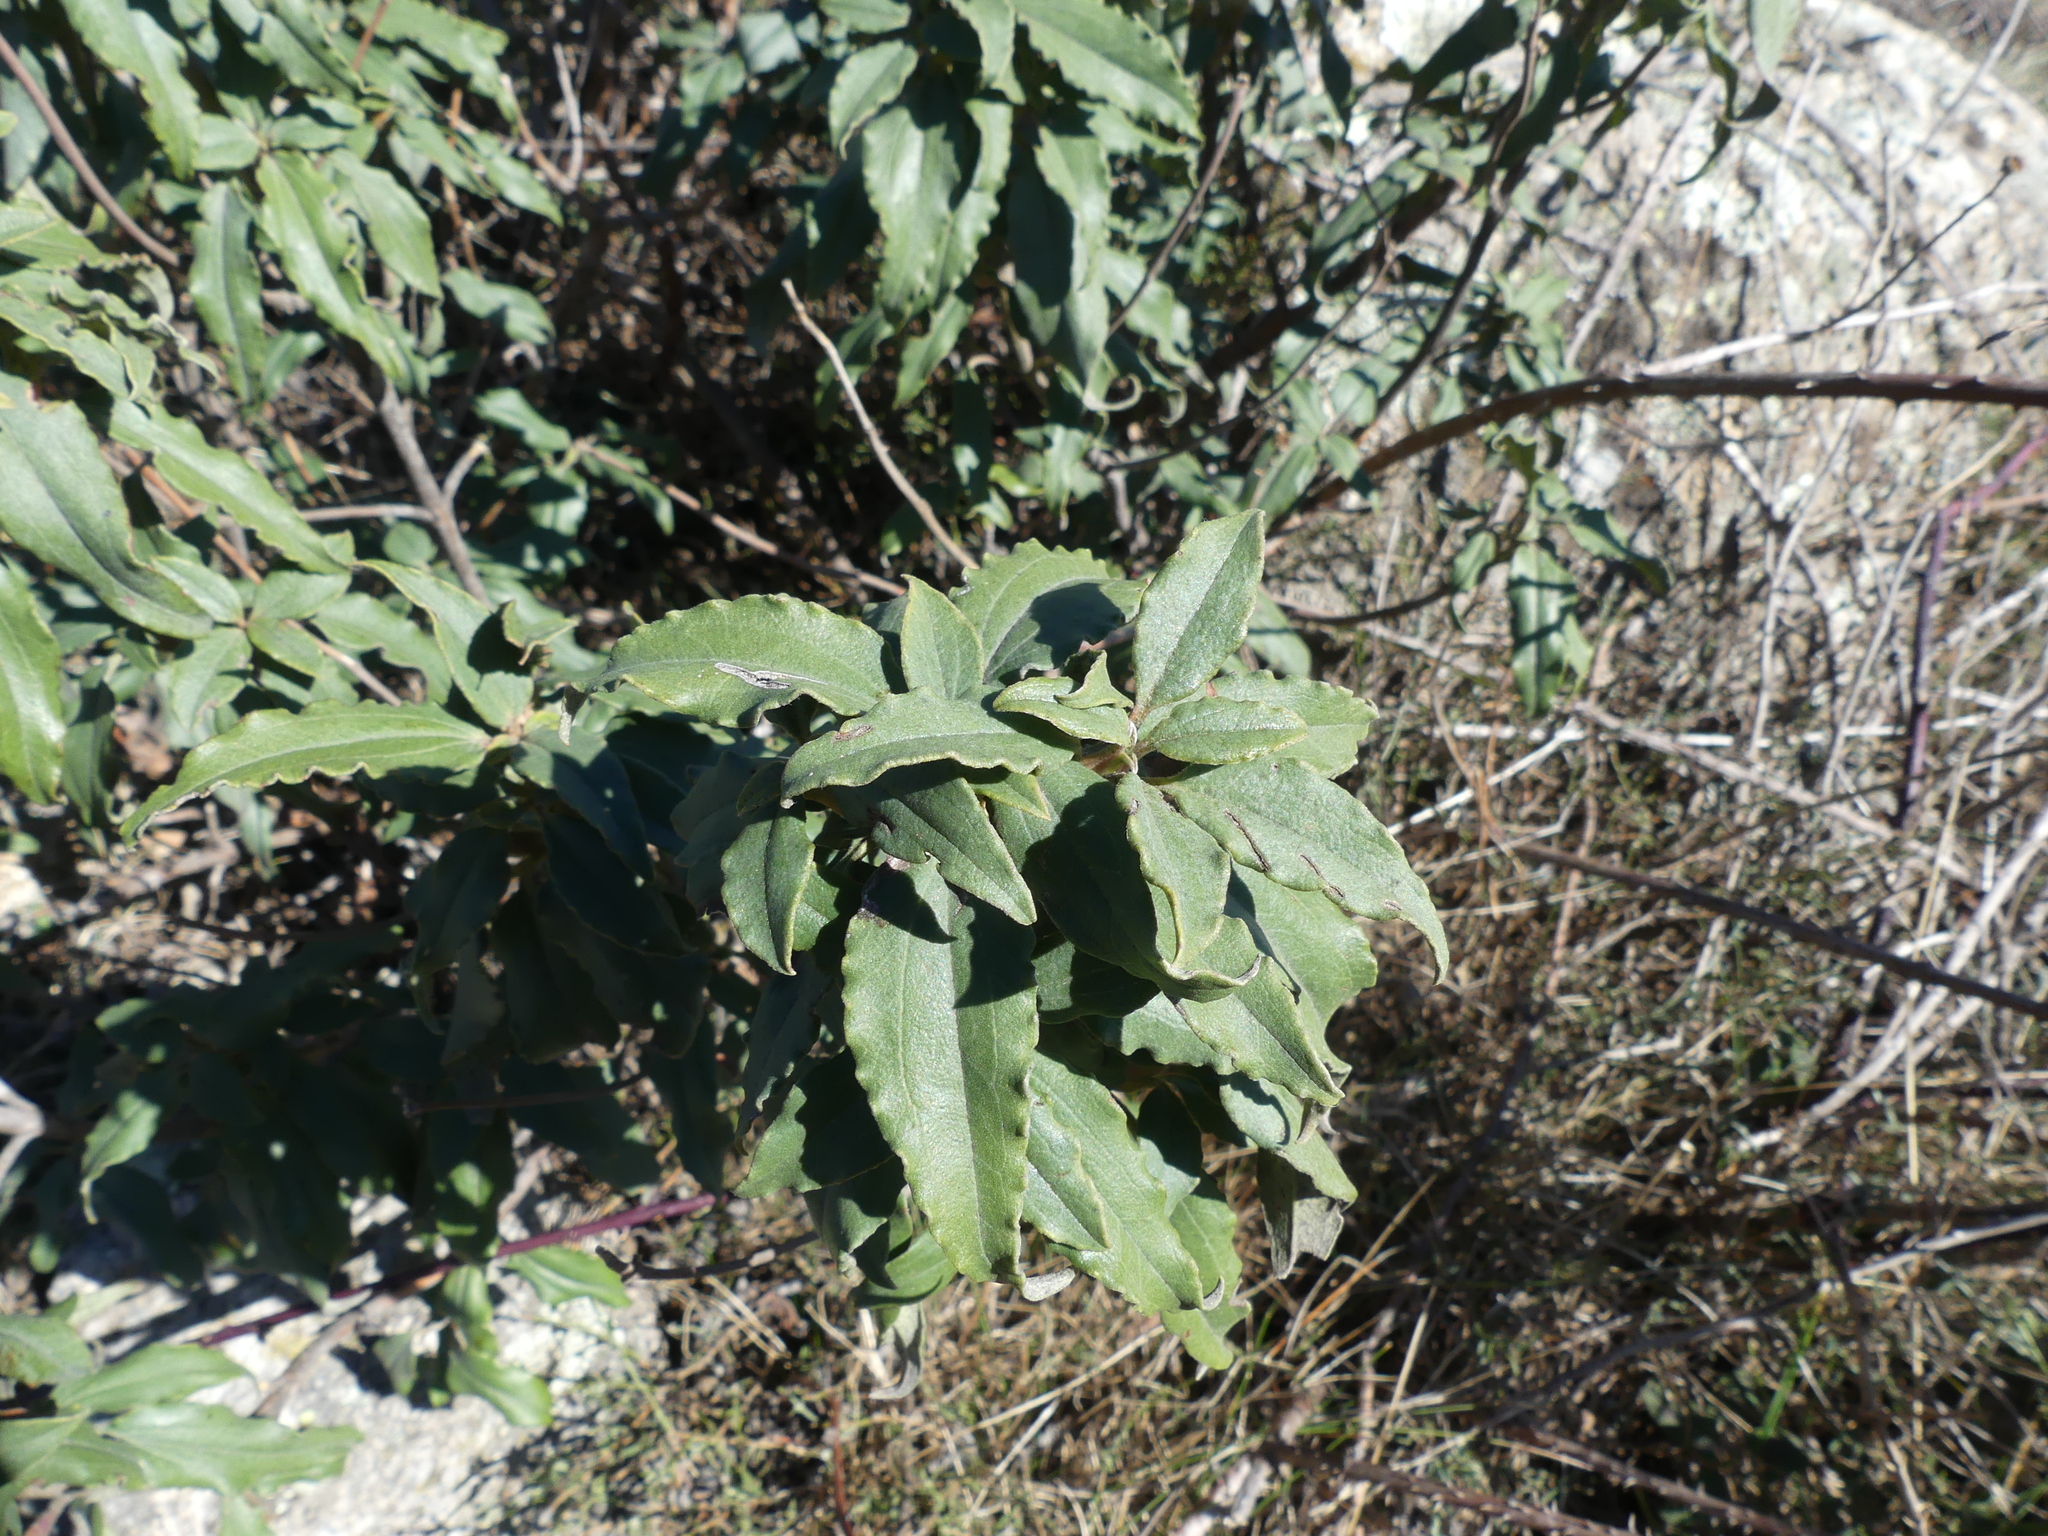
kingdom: Plantae
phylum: Tracheophyta
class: Magnoliopsida
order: Malvales
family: Cistaceae
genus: Cistus
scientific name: Cistus laurifolius
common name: Laurel-leaved cistus
